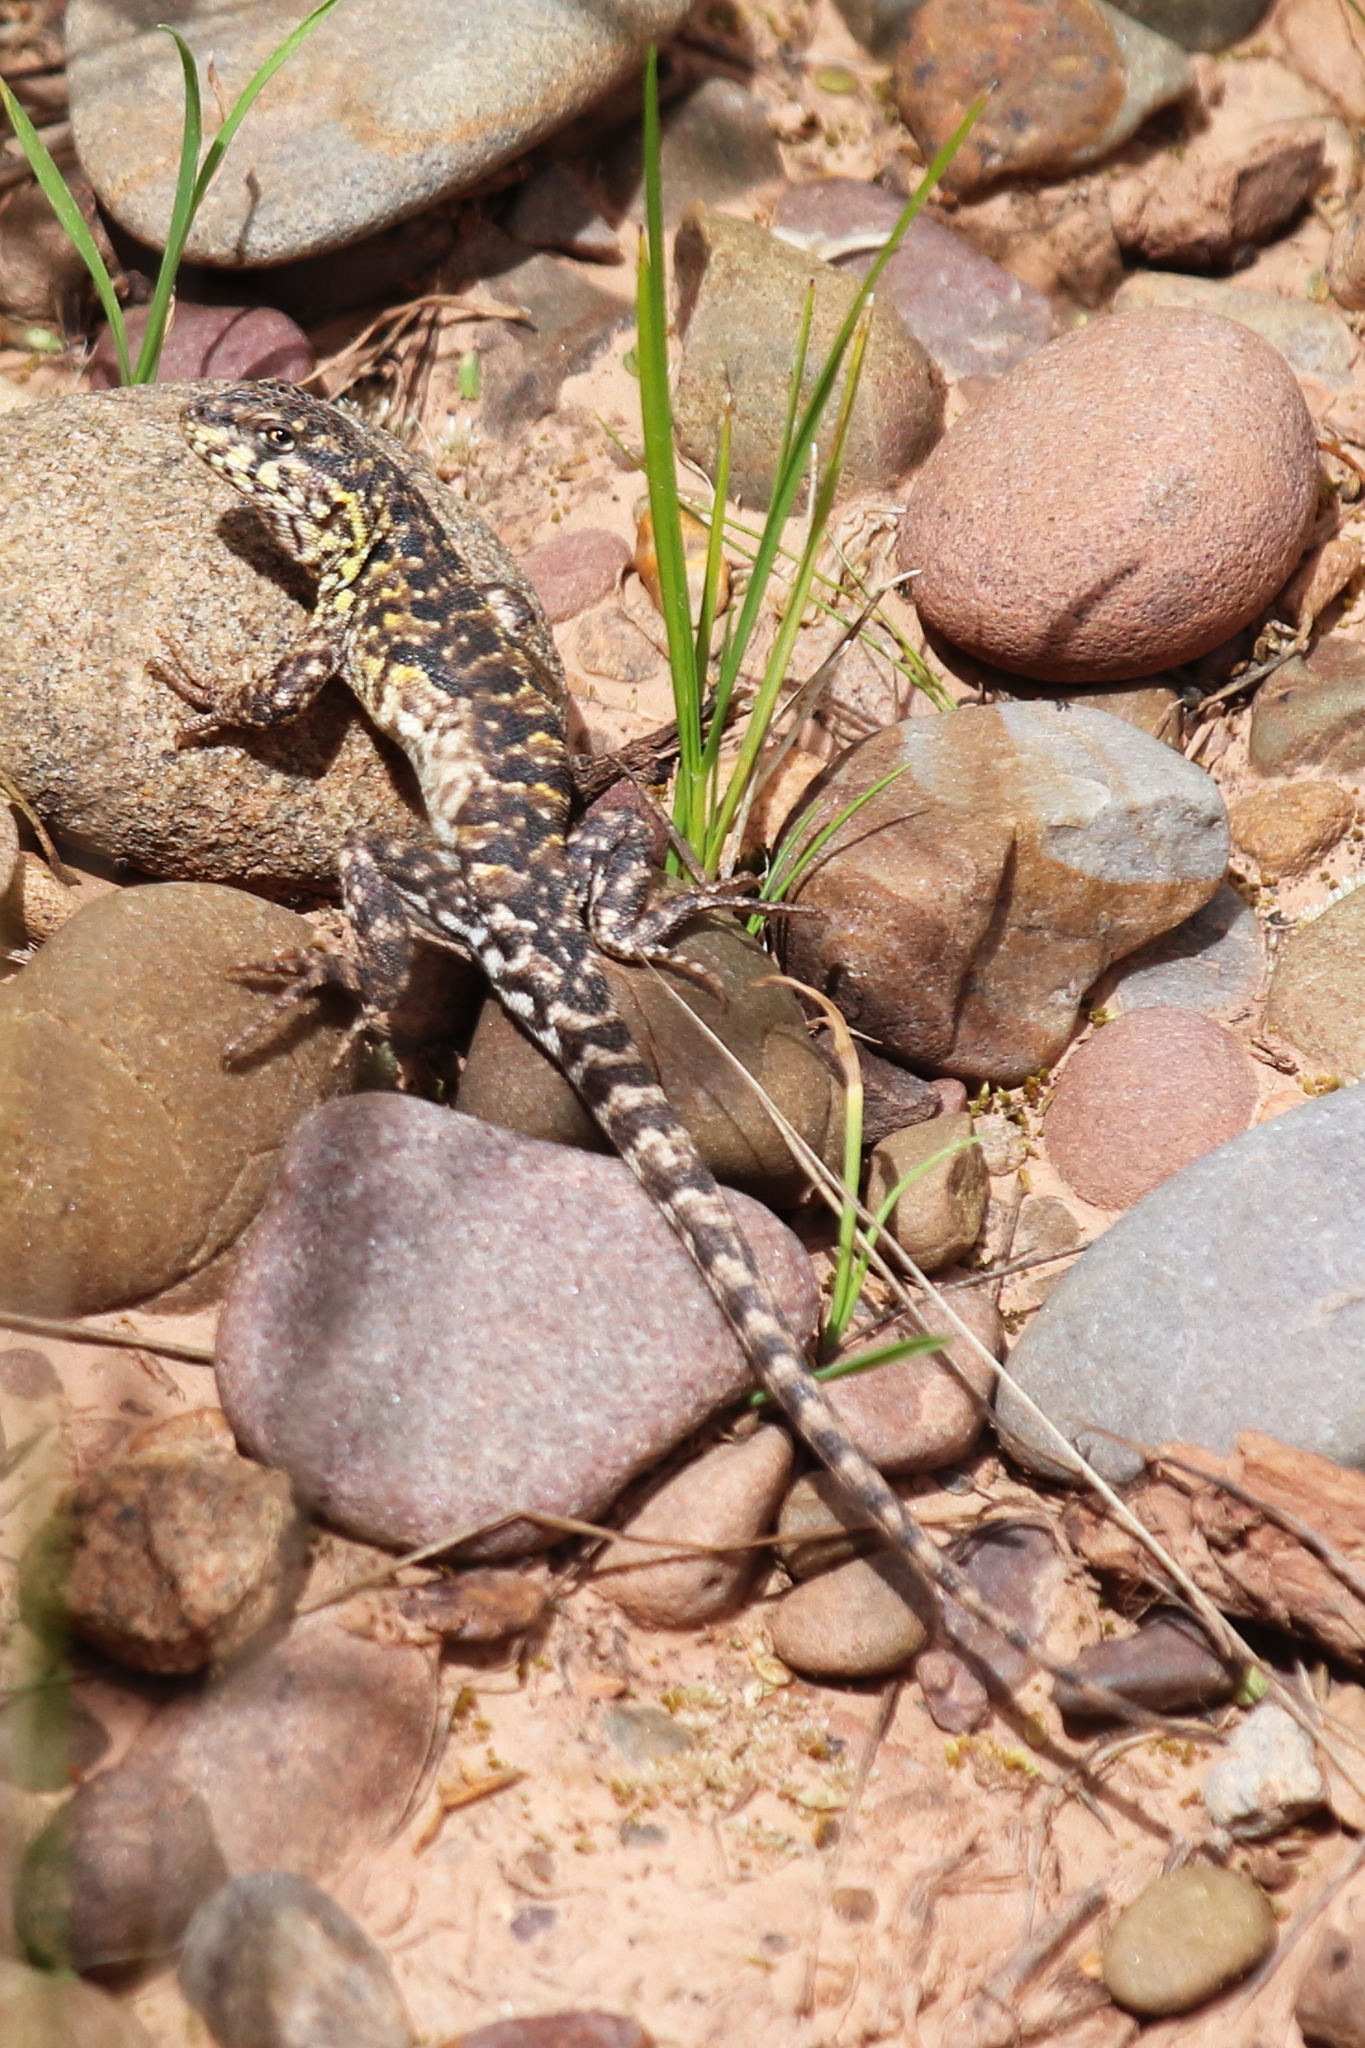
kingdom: Animalia
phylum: Chordata
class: Squamata
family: Liolaemidae
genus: Liolaemus
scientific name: Liolaemus ornatus
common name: Ornate tree iguana
